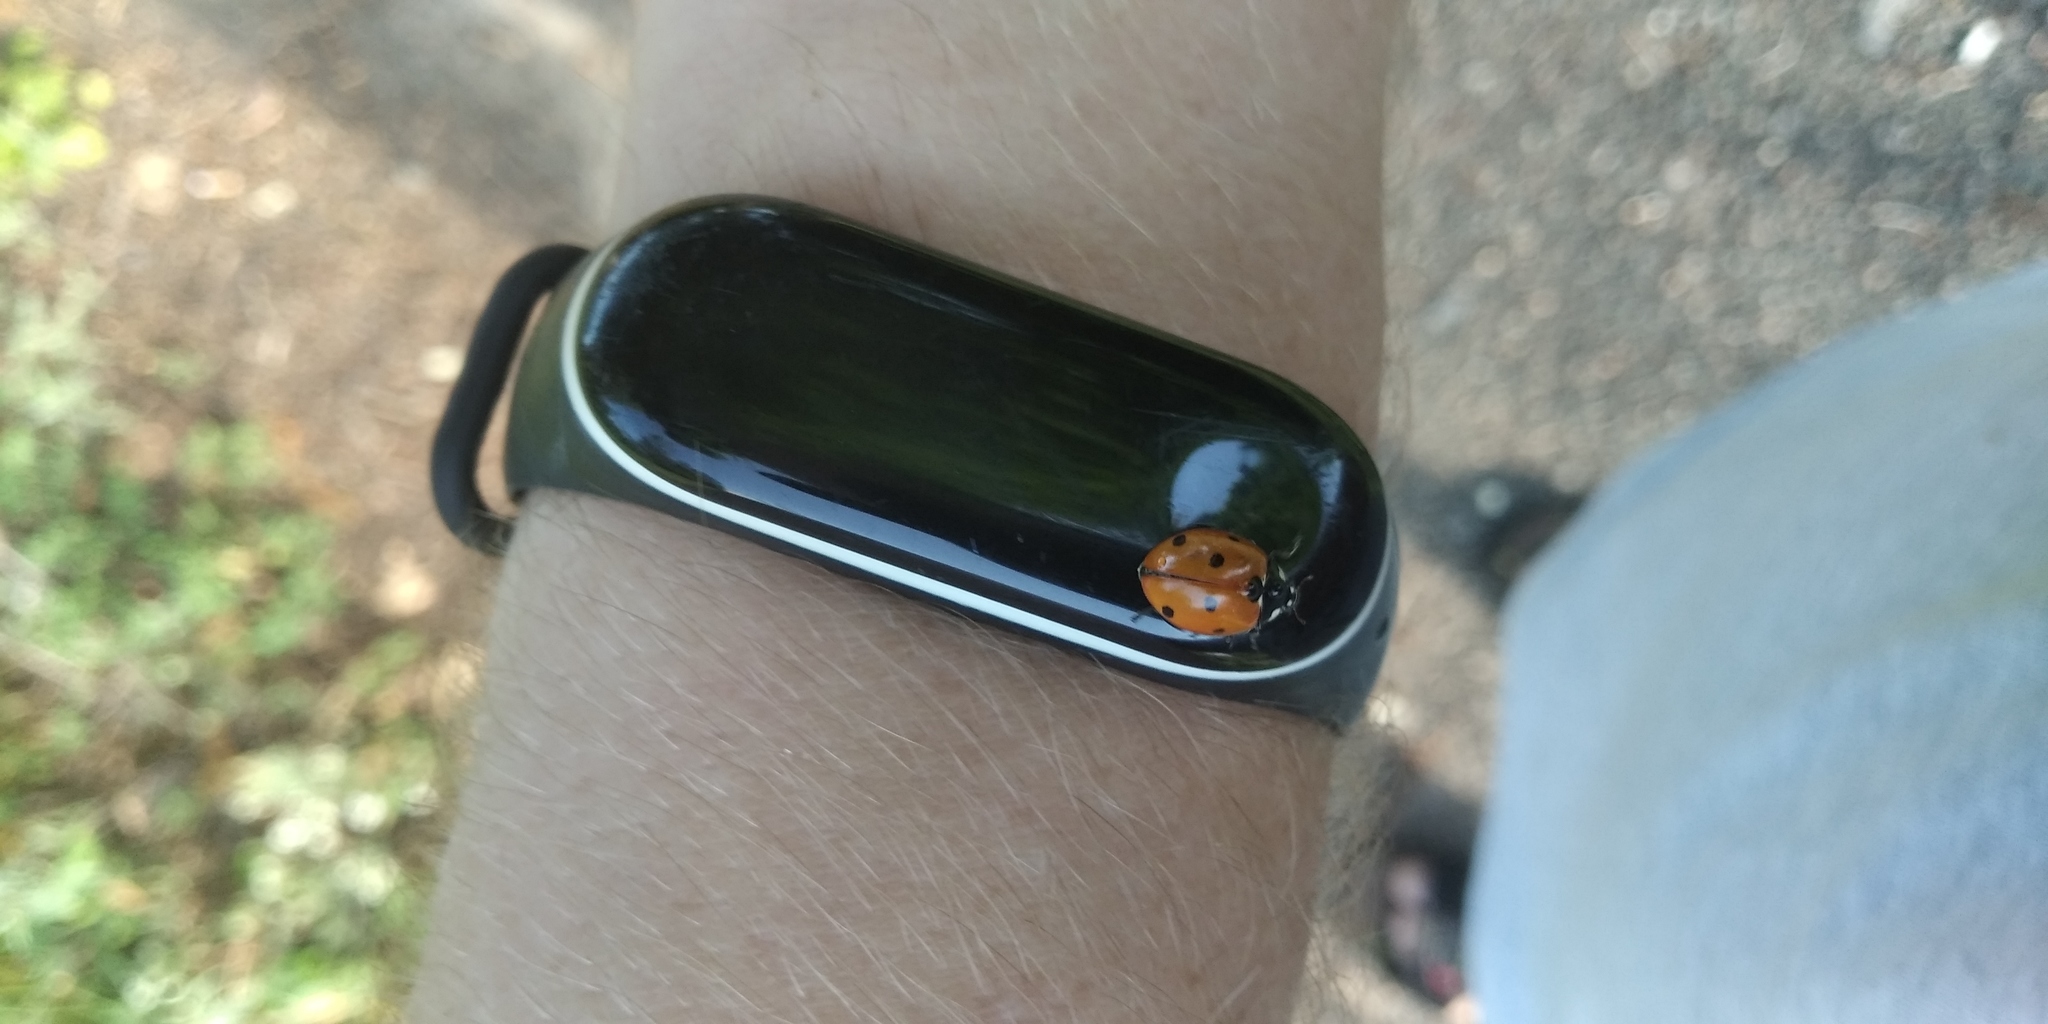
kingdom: Animalia
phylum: Arthropoda
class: Insecta
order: Coleoptera
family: Coccinellidae
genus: Coccinella
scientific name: Coccinella septempunctata
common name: Sevenspotted lady beetle
